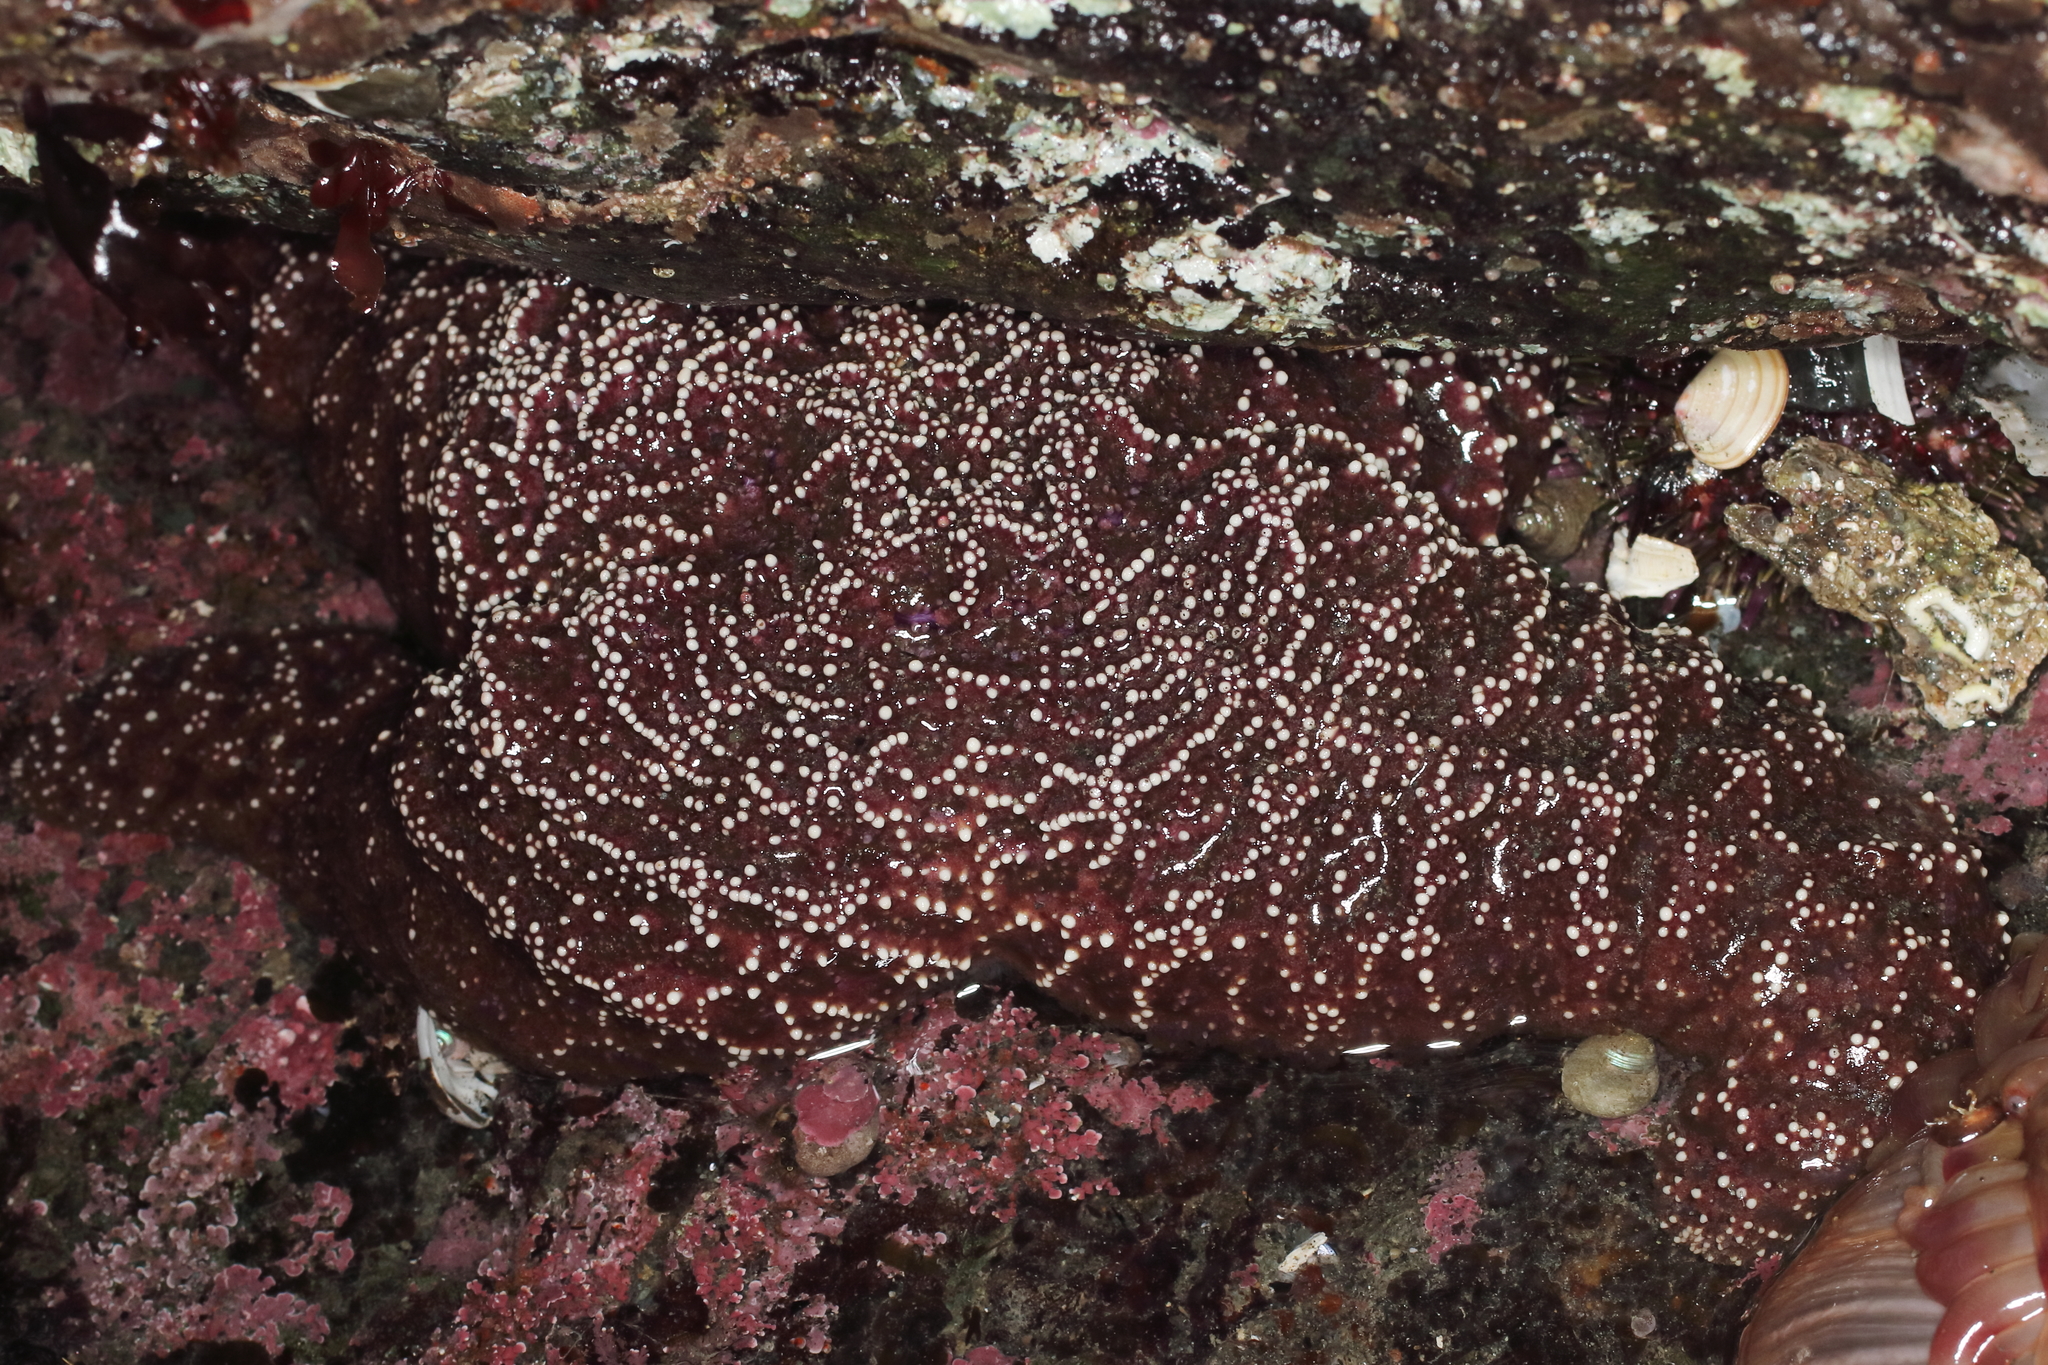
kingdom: Animalia
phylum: Echinodermata
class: Asteroidea
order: Forcipulatida
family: Asteriidae
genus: Pisaster
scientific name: Pisaster ochraceus
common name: Ochre stars
